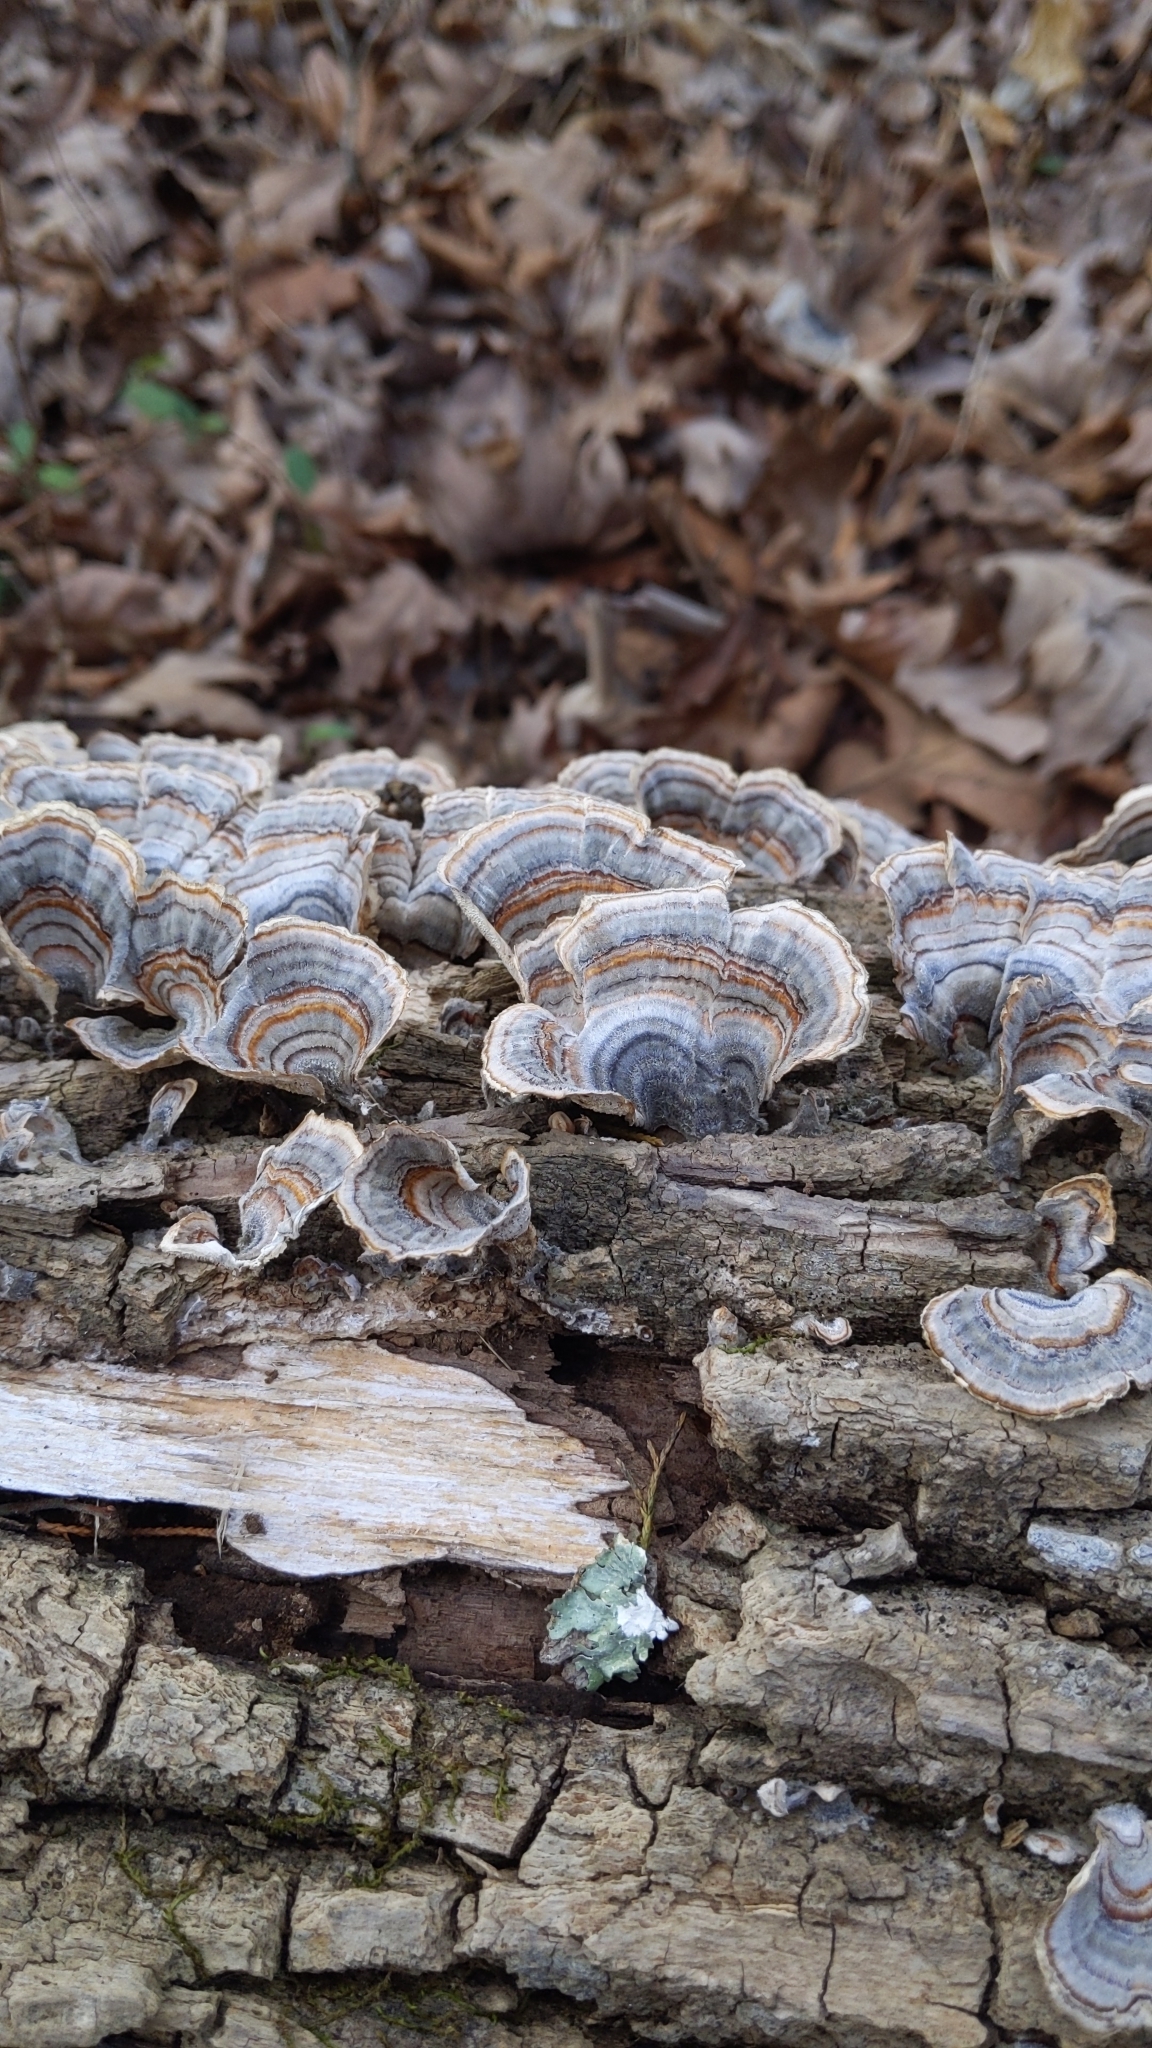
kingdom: Fungi
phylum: Basidiomycota
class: Agaricomycetes
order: Polyporales
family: Polyporaceae
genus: Trametes
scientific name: Trametes versicolor
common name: Turkeytail
